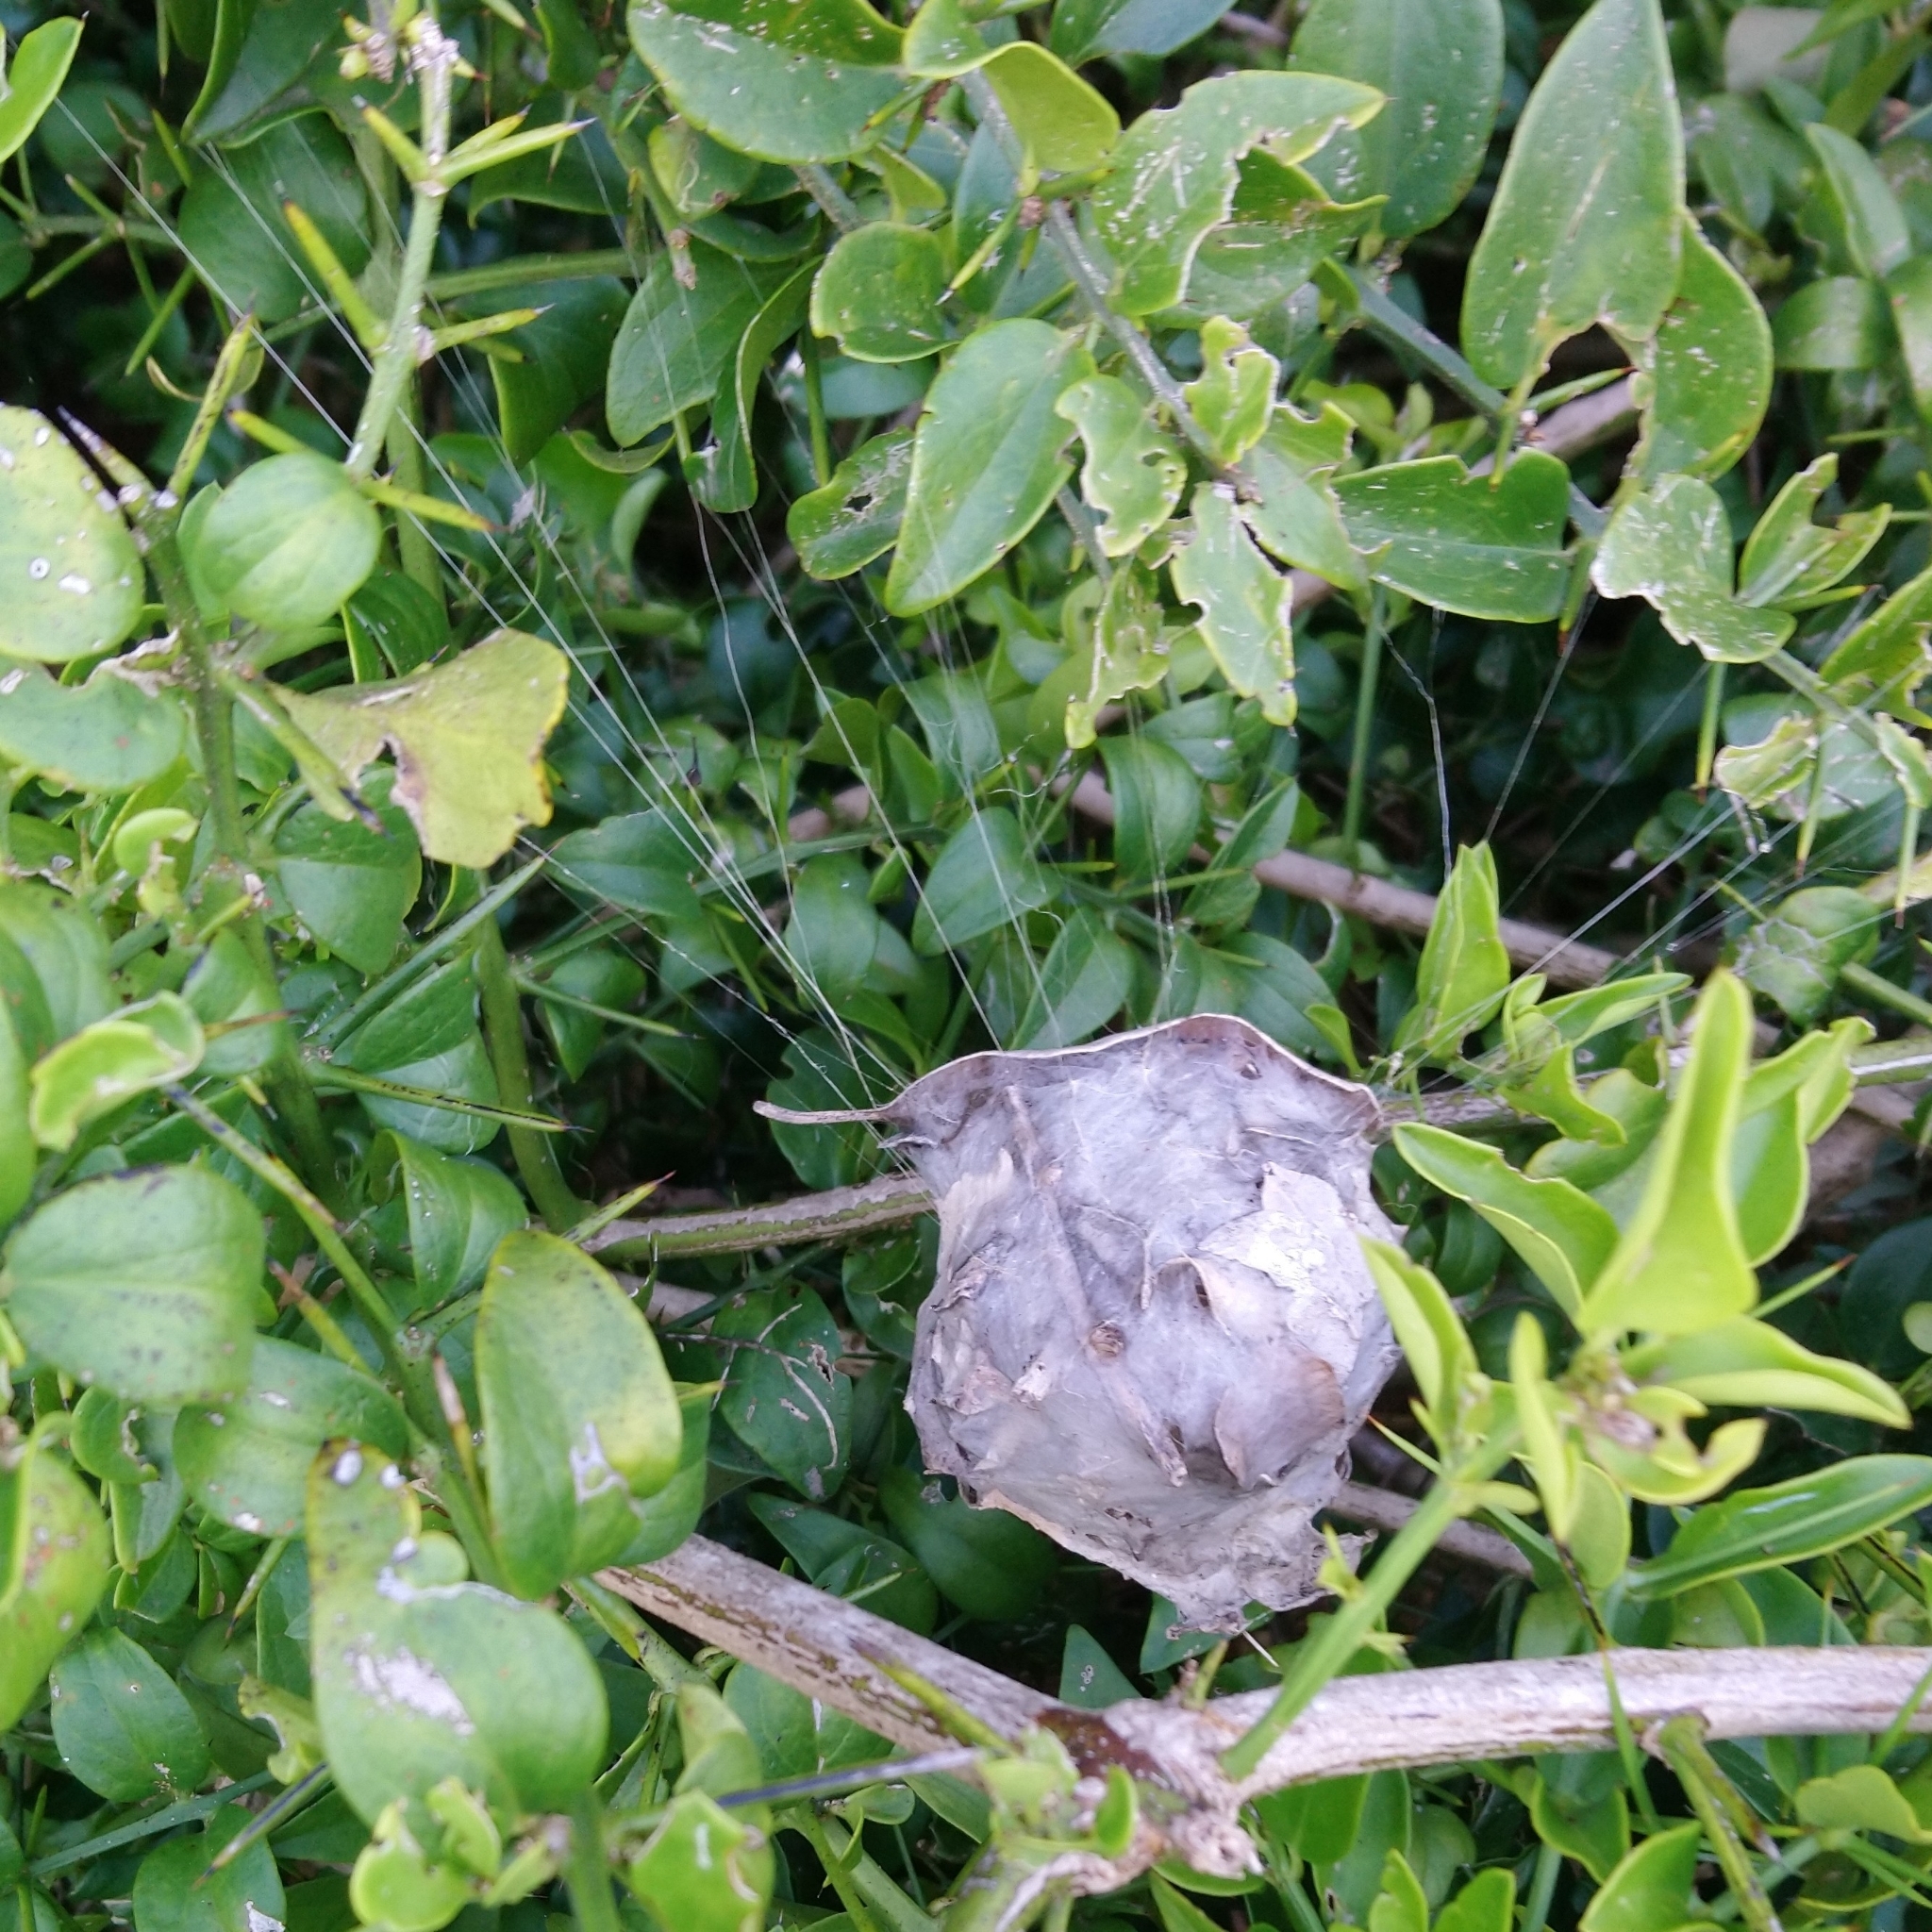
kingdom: Animalia
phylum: Arthropoda
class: Arachnida
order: Araneae
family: Sparassidae
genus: Palystes
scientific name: Palystes superciliosus
